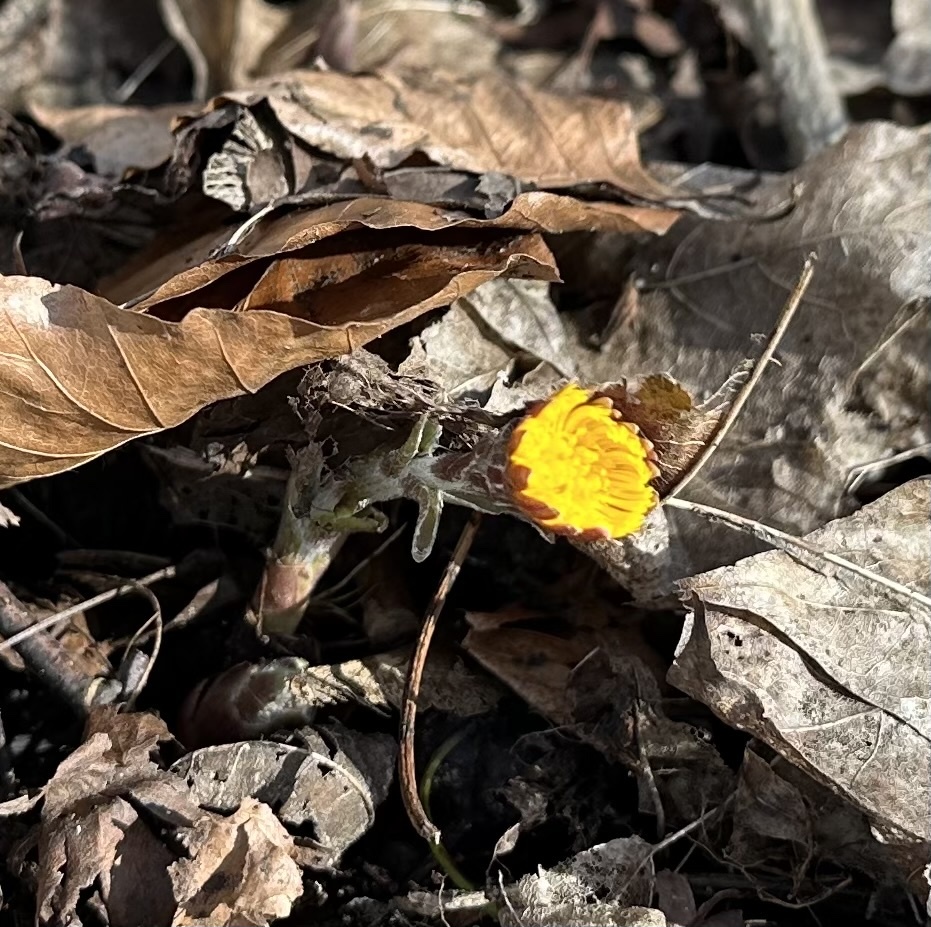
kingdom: Plantae
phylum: Tracheophyta
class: Magnoliopsida
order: Asterales
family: Asteraceae
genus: Tussilago
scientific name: Tussilago farfara
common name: Coltsfoot
